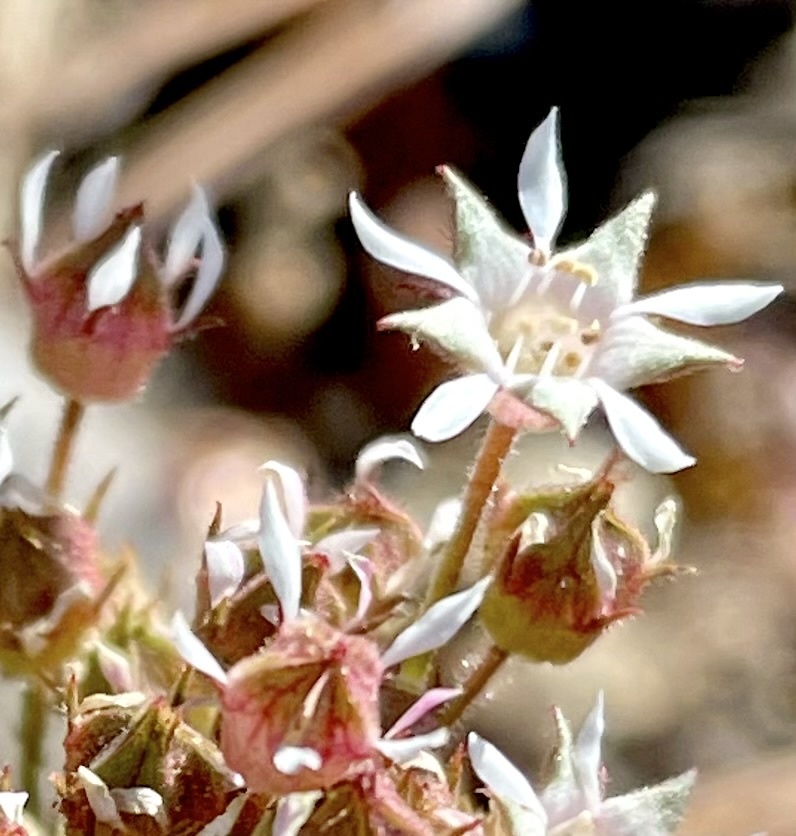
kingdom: Plantae
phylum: Tracheophyta
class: Magnoliopsida
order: Rosales
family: Rosaceae
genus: Potentilla
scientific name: Potentilla tilingii
